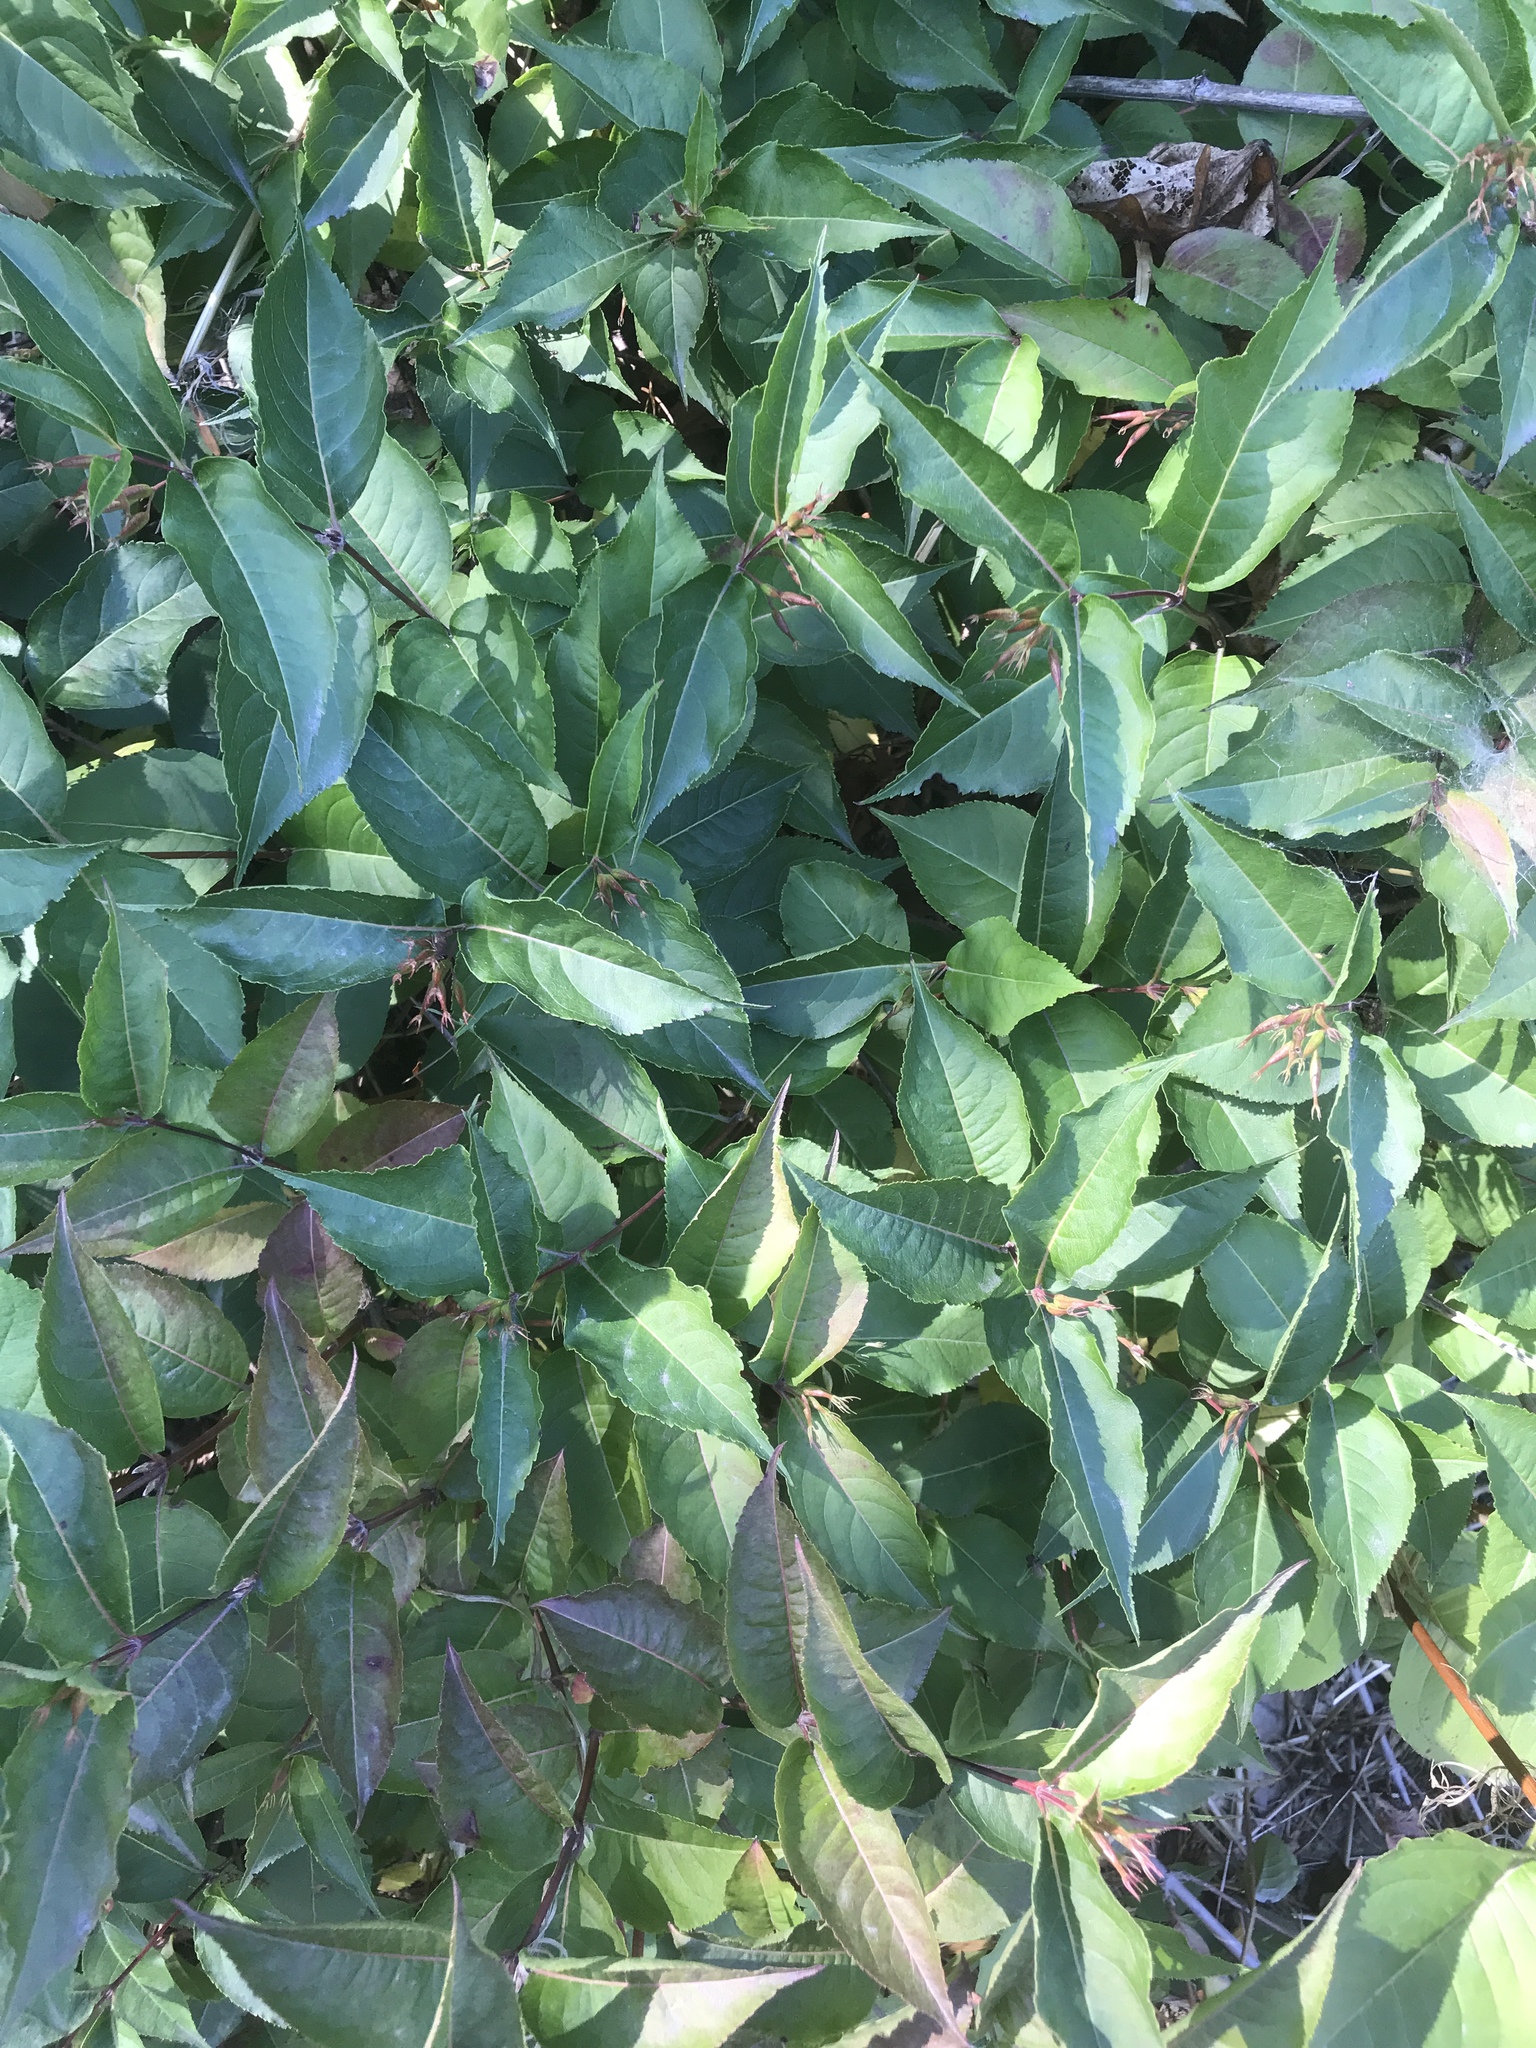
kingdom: Plantae
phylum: Tracheophyta
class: Magnoliopsida
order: Dipsacales
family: Caprifoliaceae
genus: Diervilla
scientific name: Diervilla lonicera
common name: Bush-honeysuckle
